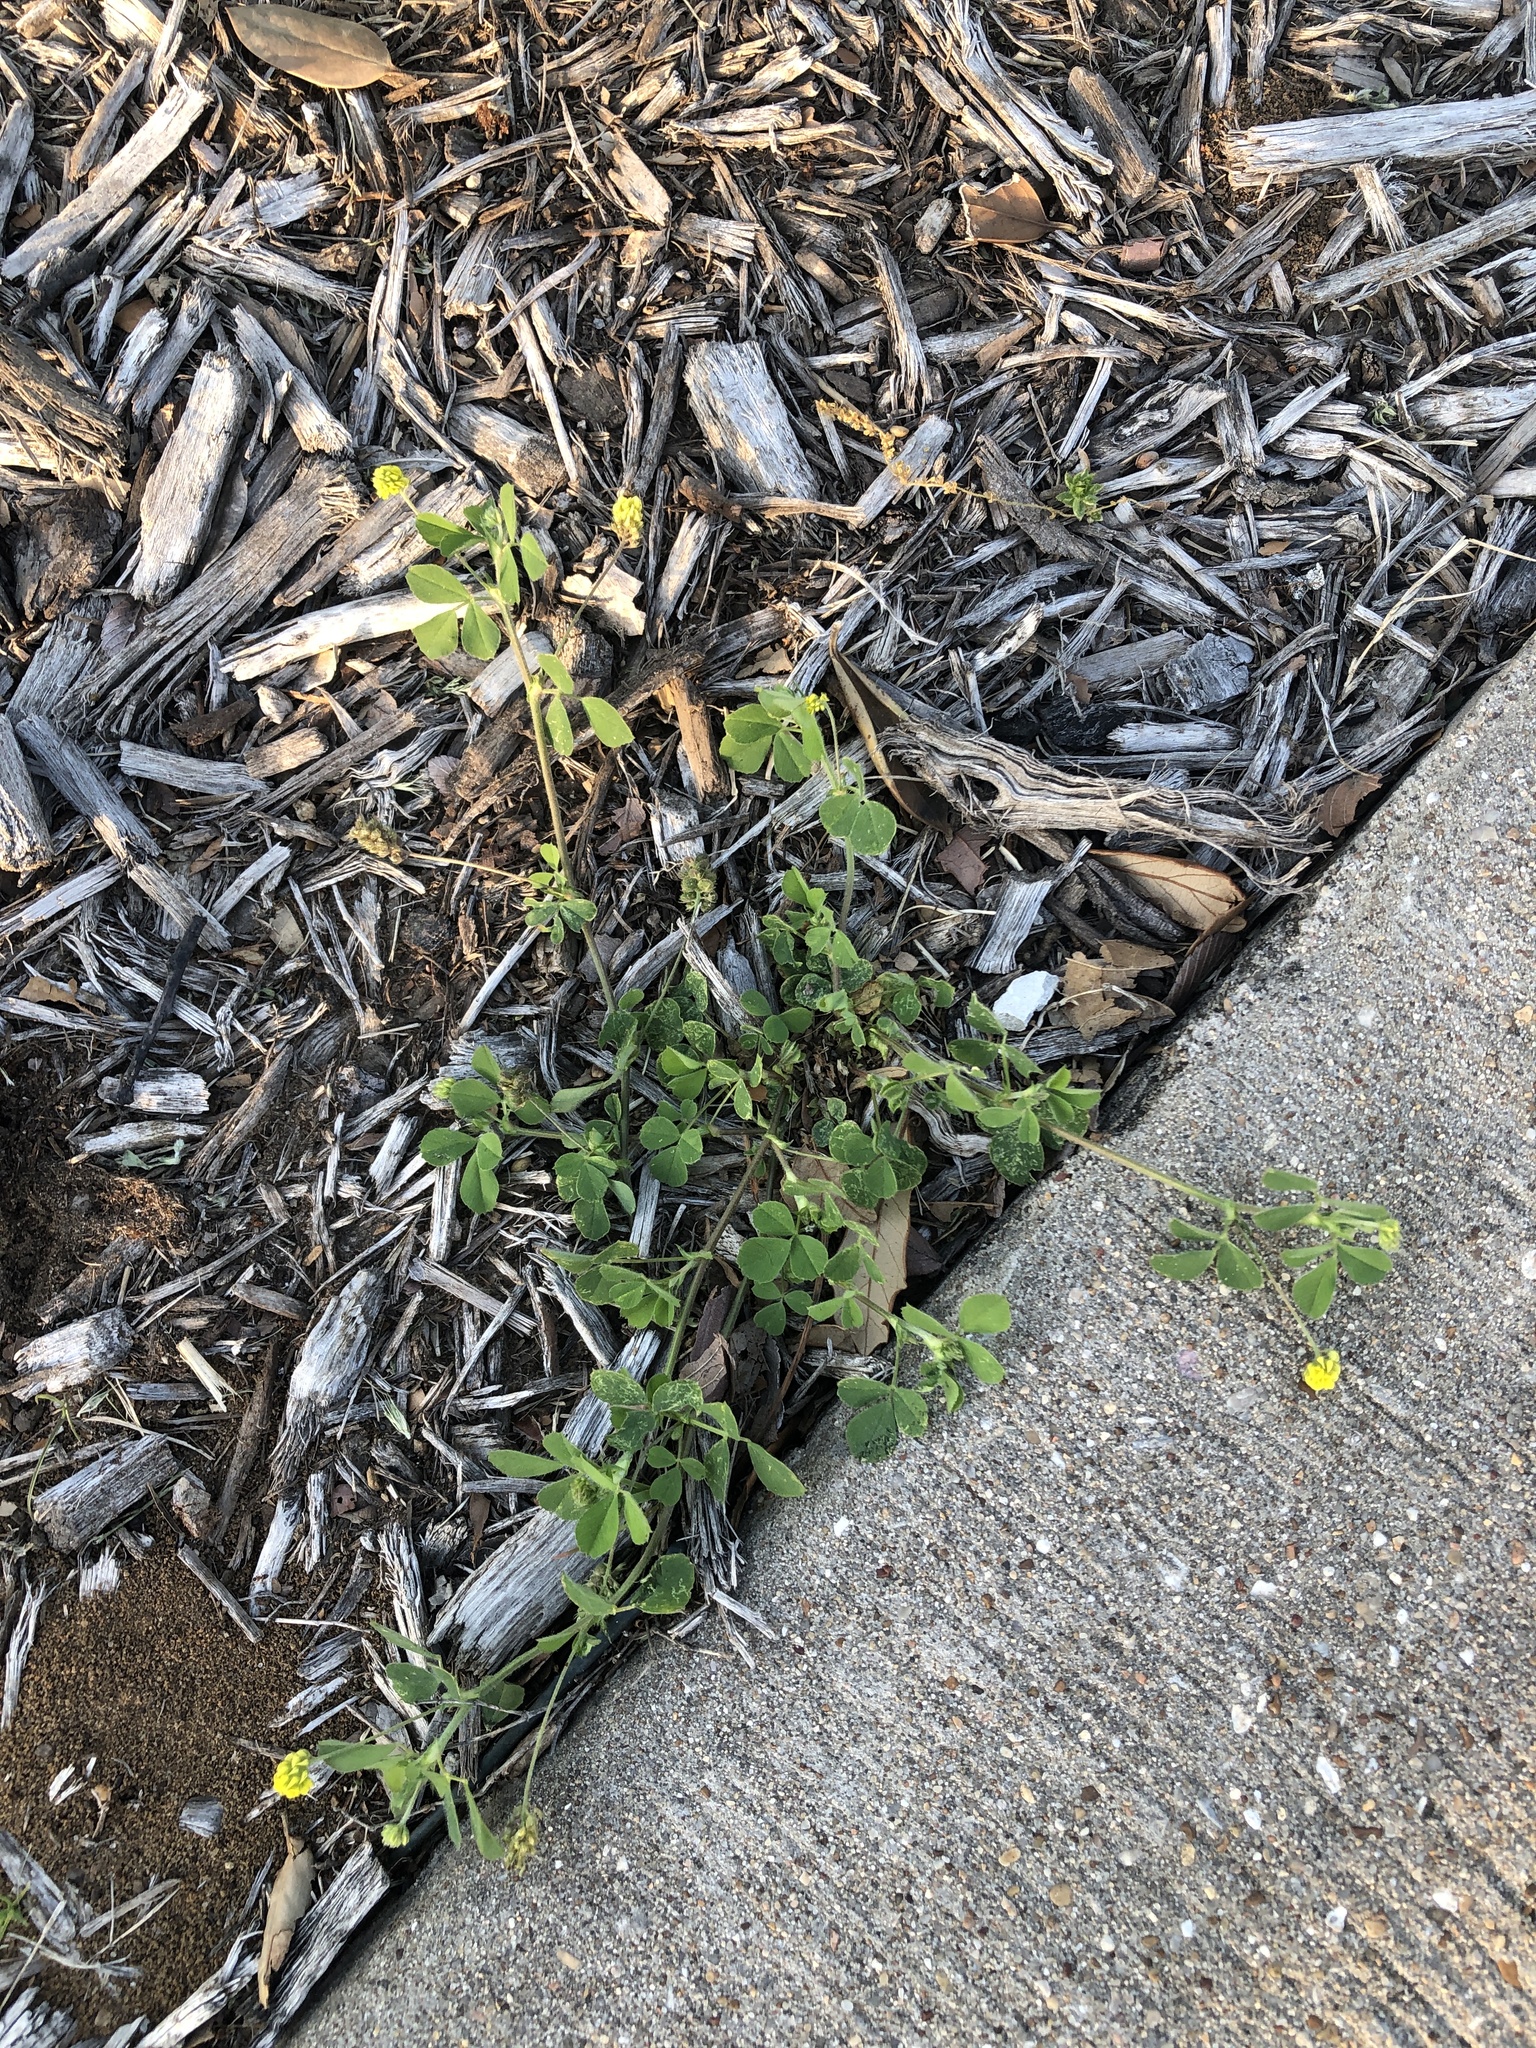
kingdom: Plantae
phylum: Tracheophyta
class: Magnoliopsida
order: Fabales
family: Fabaceae
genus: Medicago
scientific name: Medicago lupulina
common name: Black medick
